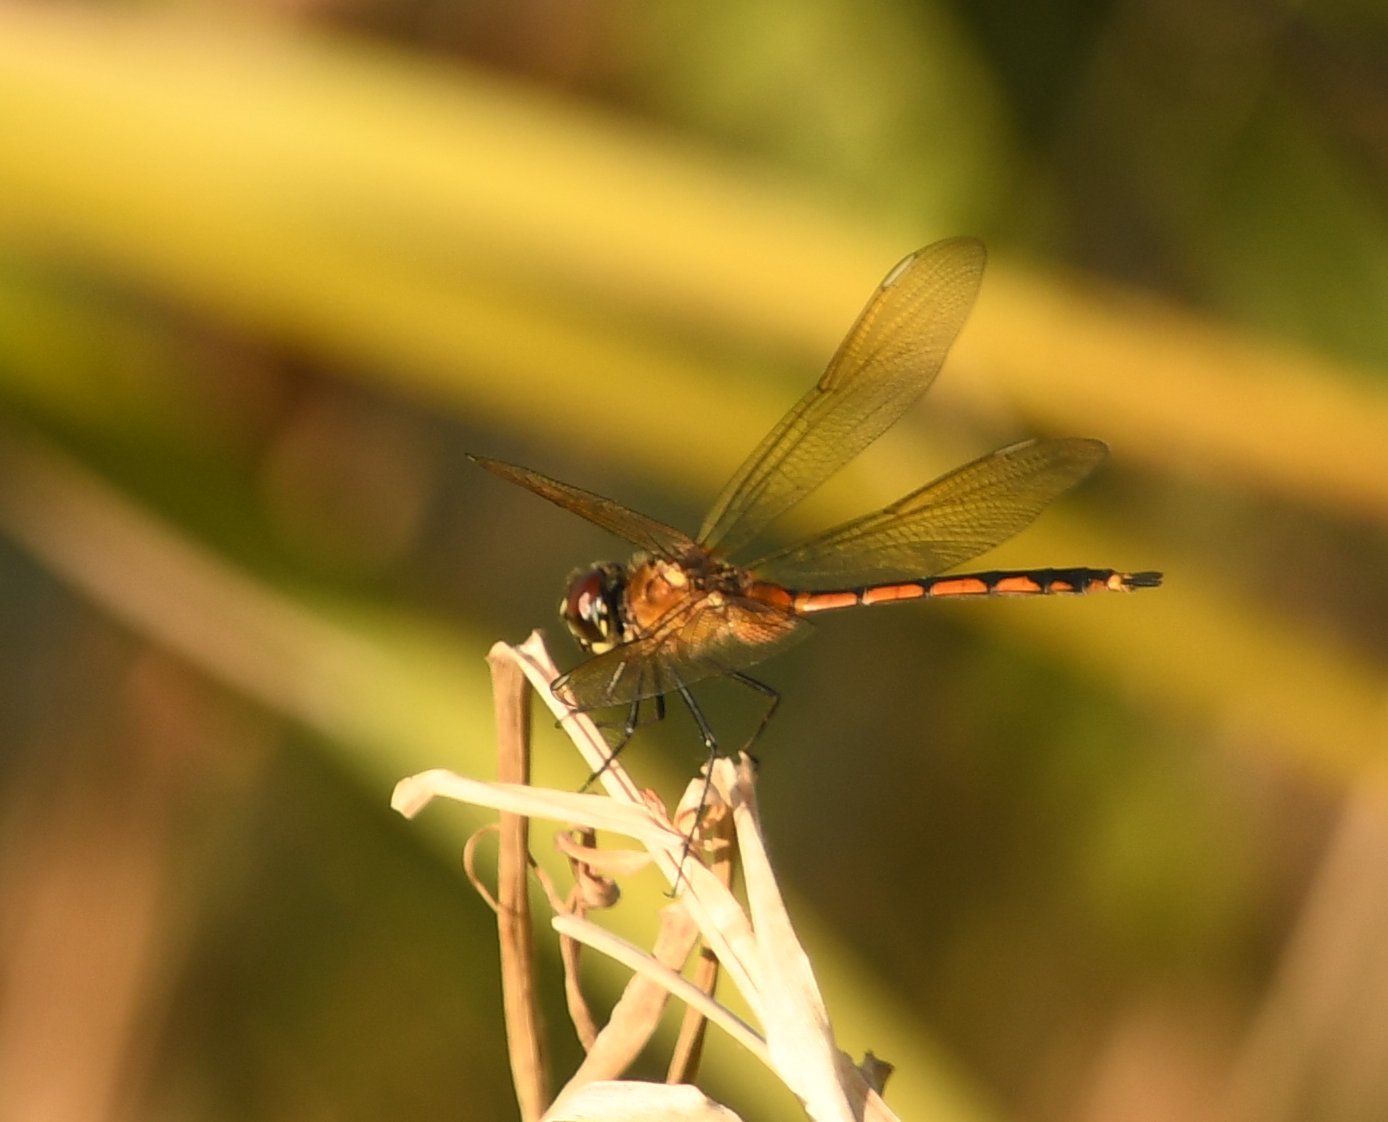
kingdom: Animalia
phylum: Arthropoda
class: Insecta
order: Odonata
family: Libellulidae
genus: Brachymesia
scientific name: Brachymesia gravida
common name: Four-spotted pennant
